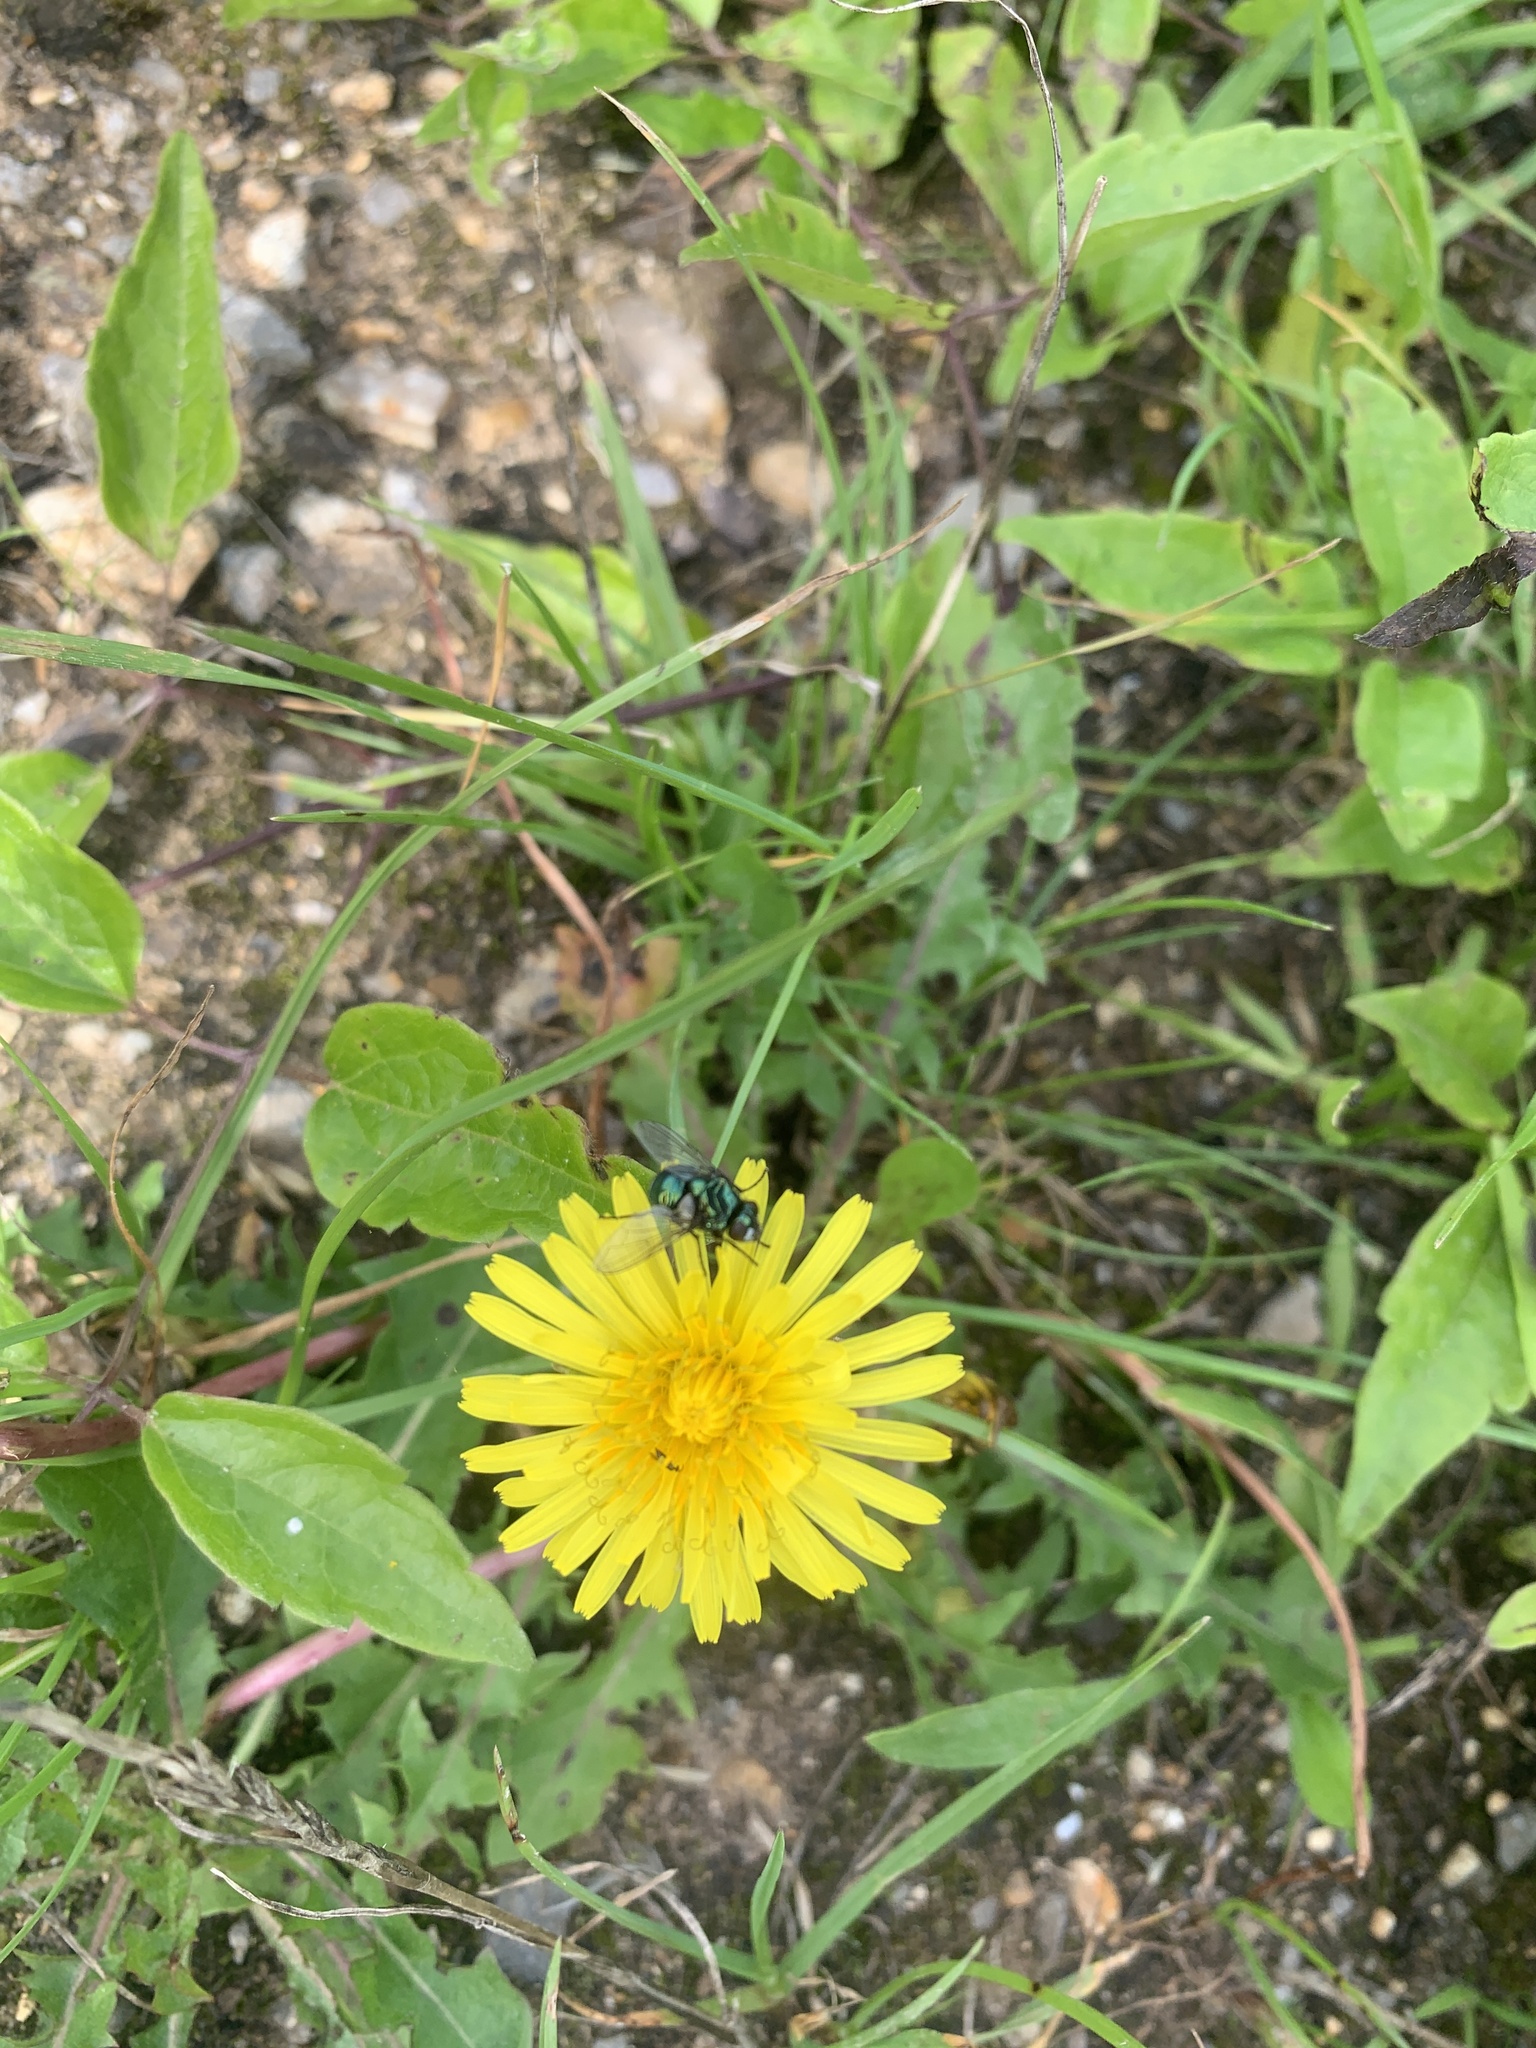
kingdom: Animalia
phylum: Arthropoda
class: Insecta
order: Diptera
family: Calliphoridae
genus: Cynomya
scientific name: Cynomya mortuorum
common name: Bluebottle blow fly
